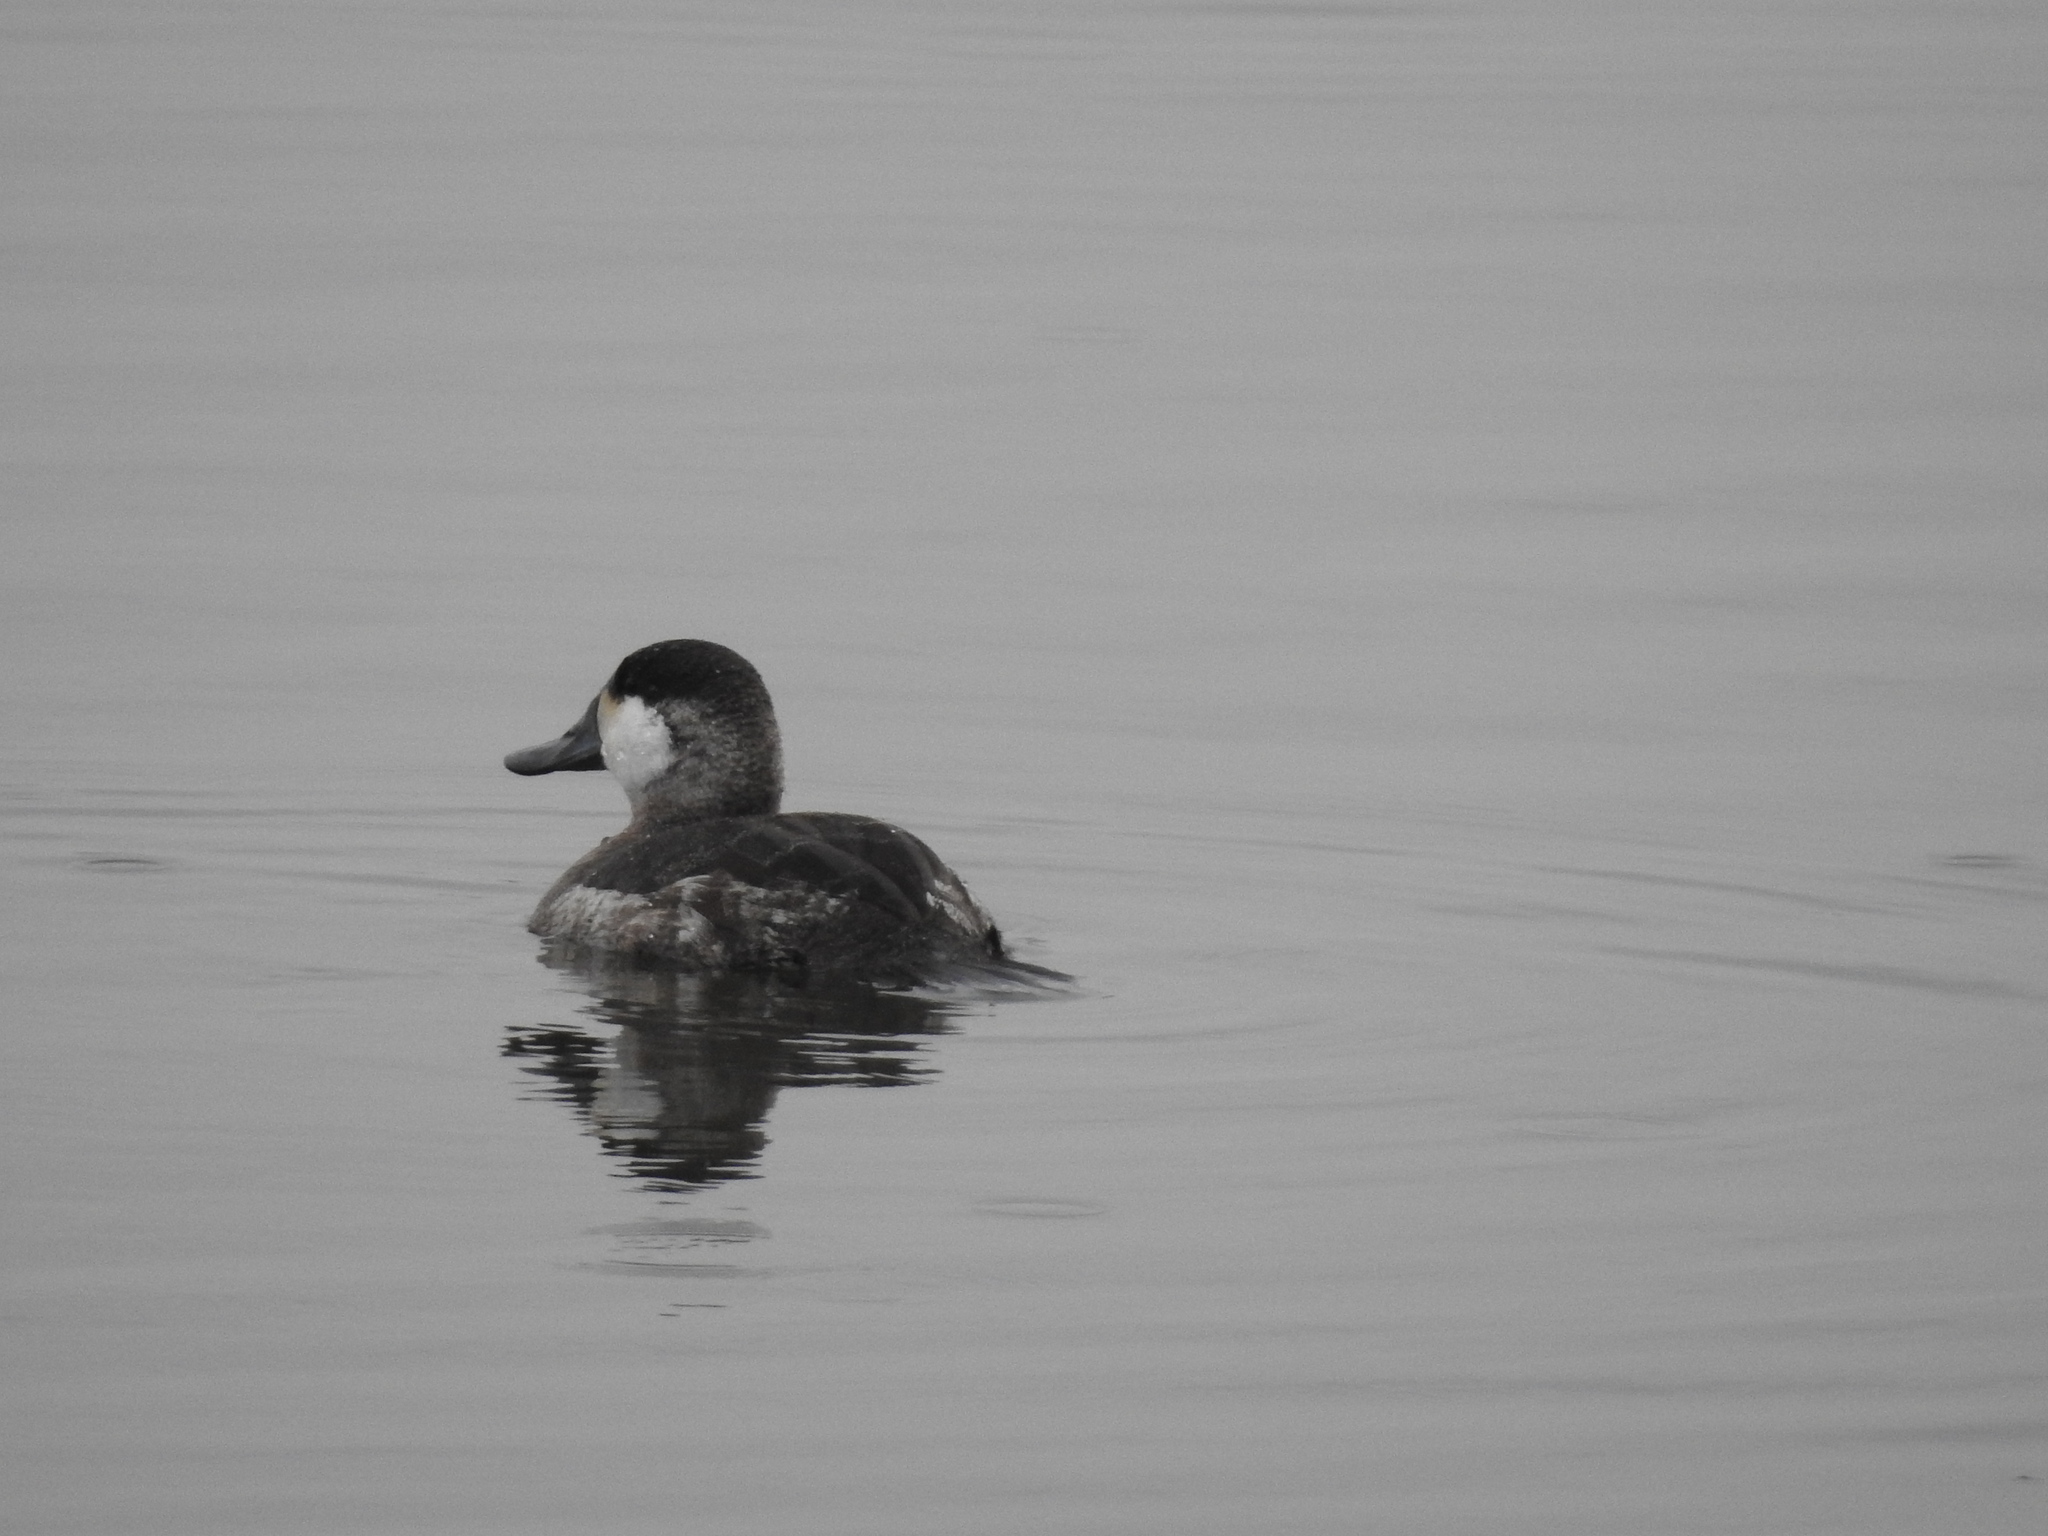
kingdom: Animalia
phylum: Chordata
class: Aves
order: Anseriformes
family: Anatidae
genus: Oxyura
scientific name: Oxyura jamaicensis
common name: Ruddy duck
